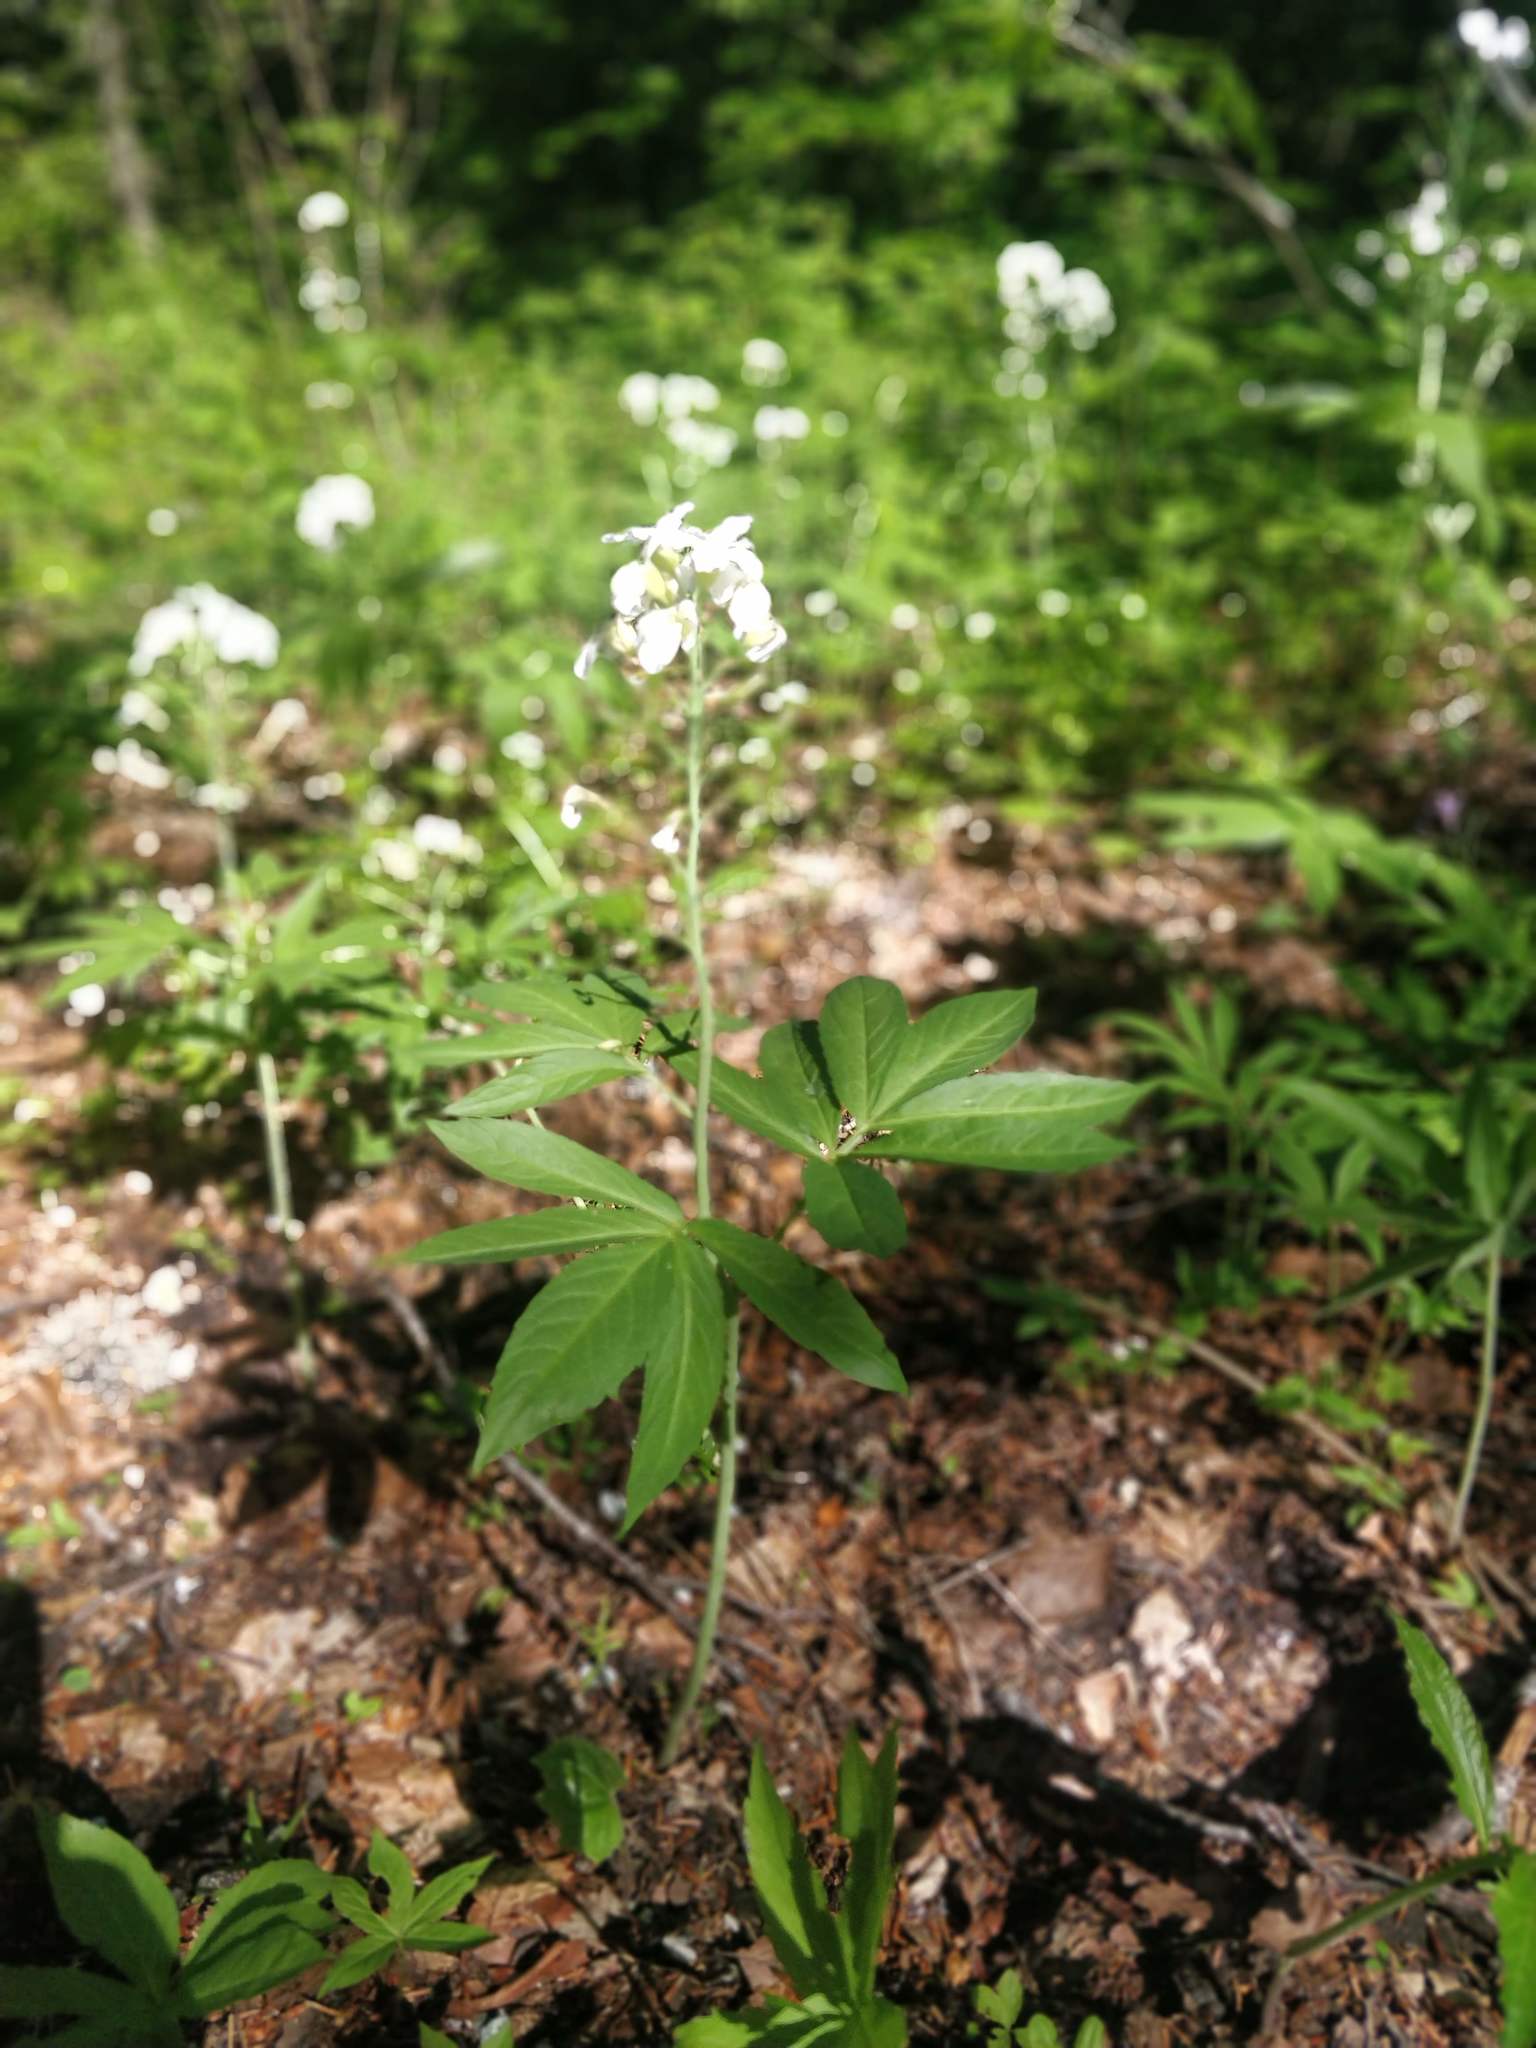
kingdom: Plantae
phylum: Tracheophyta
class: Magnoliopsida
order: Brassicales
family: Brassicaceae
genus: Cardamine
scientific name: Cardamine heptaphylla
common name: Pinnate coralroot
